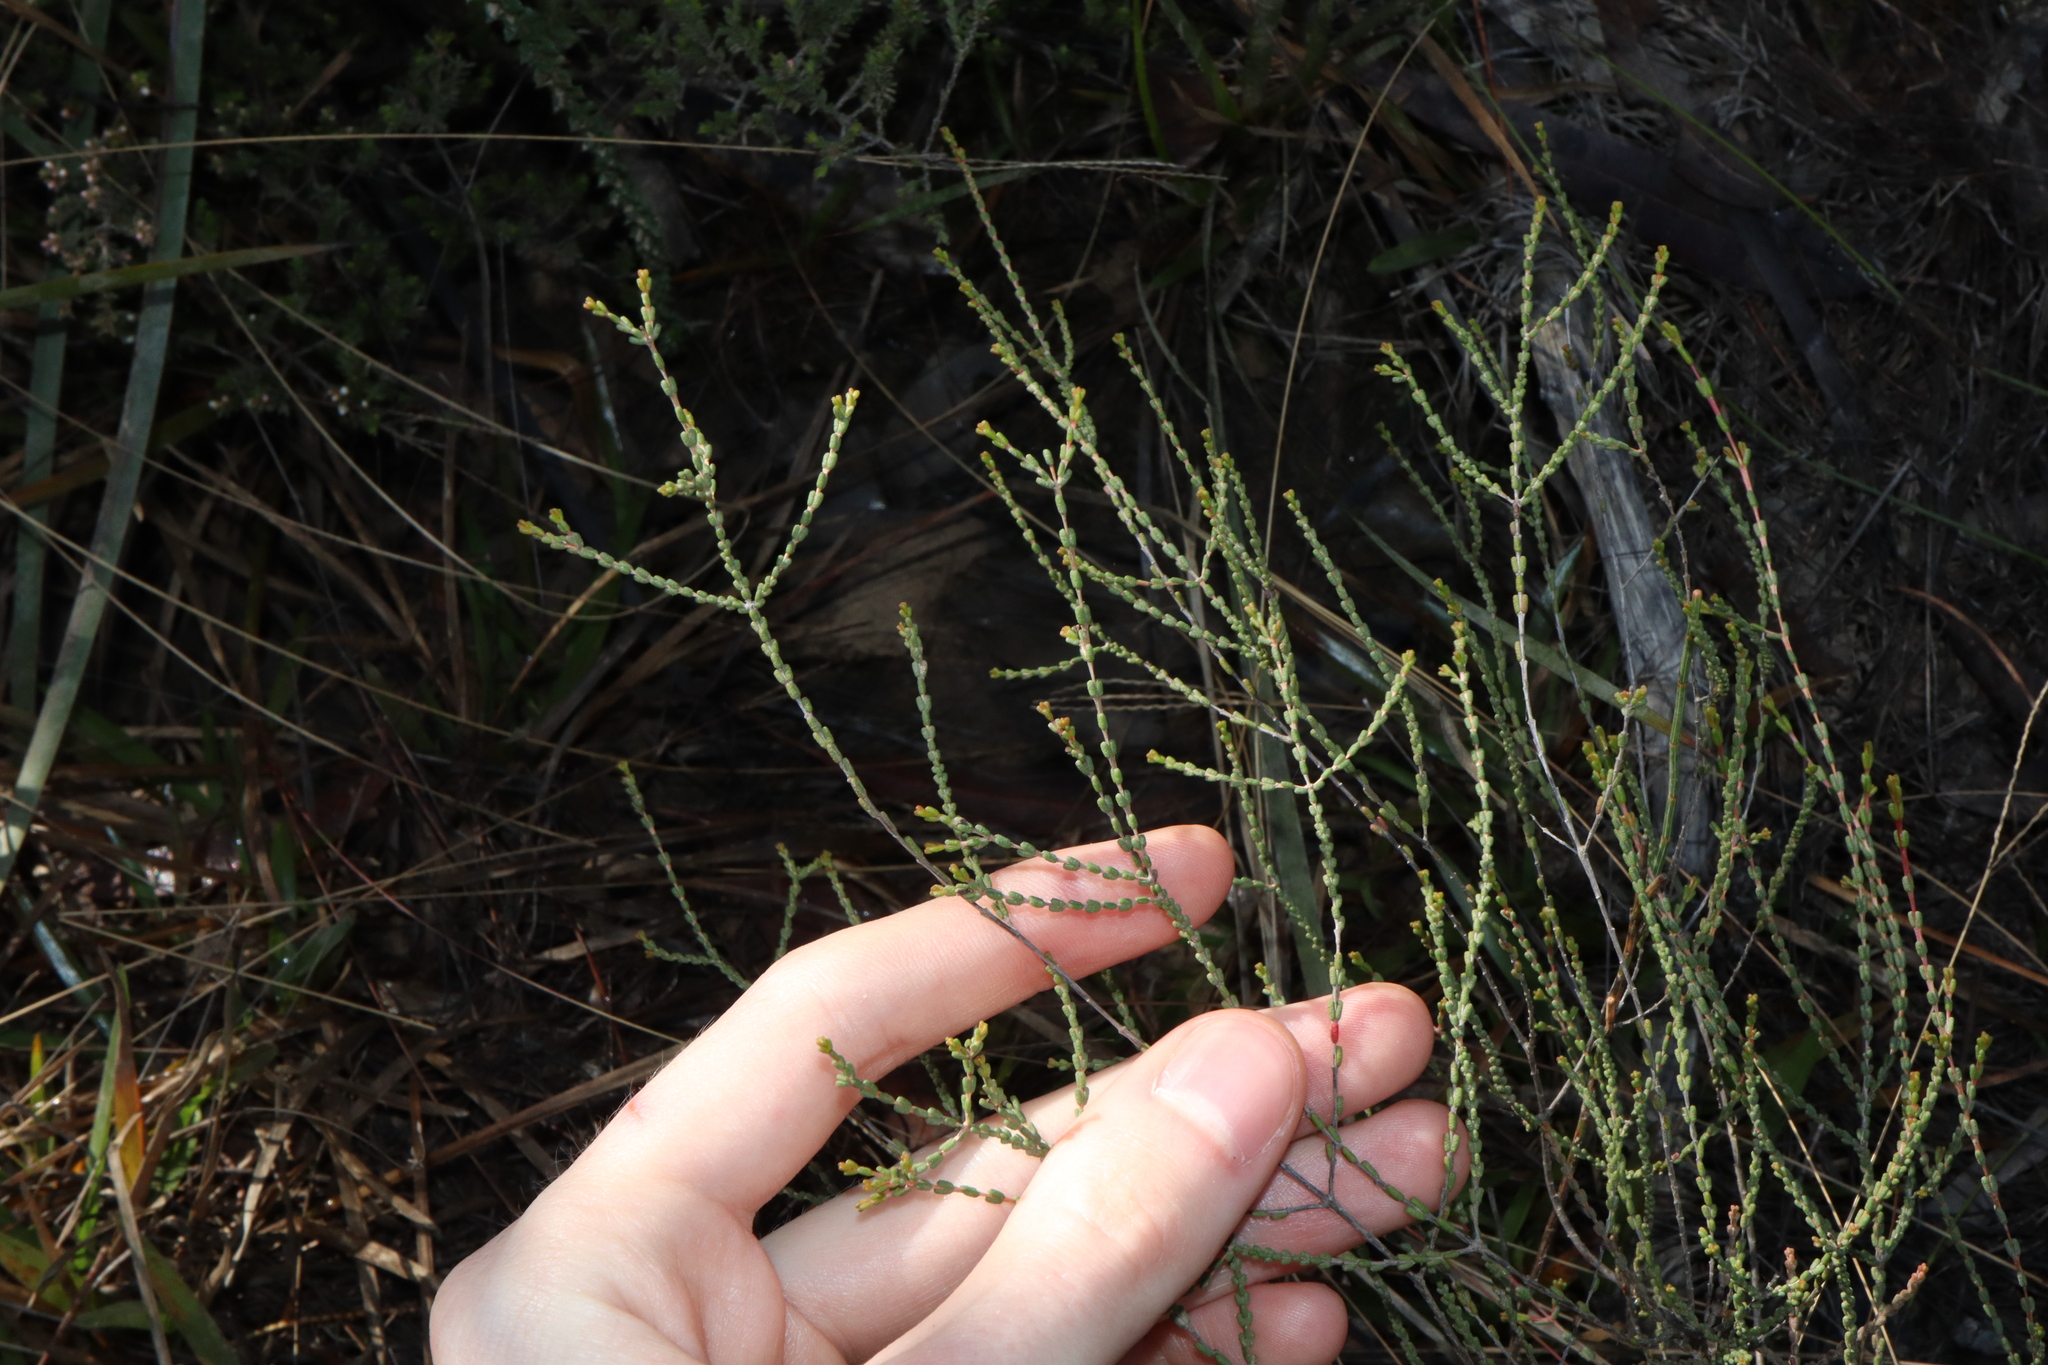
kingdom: Plantae
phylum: Tracheophyta
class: Magnoliopsida
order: Myrtales
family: Myrtaceae
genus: Baeckea
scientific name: Baeckea brevifolia
